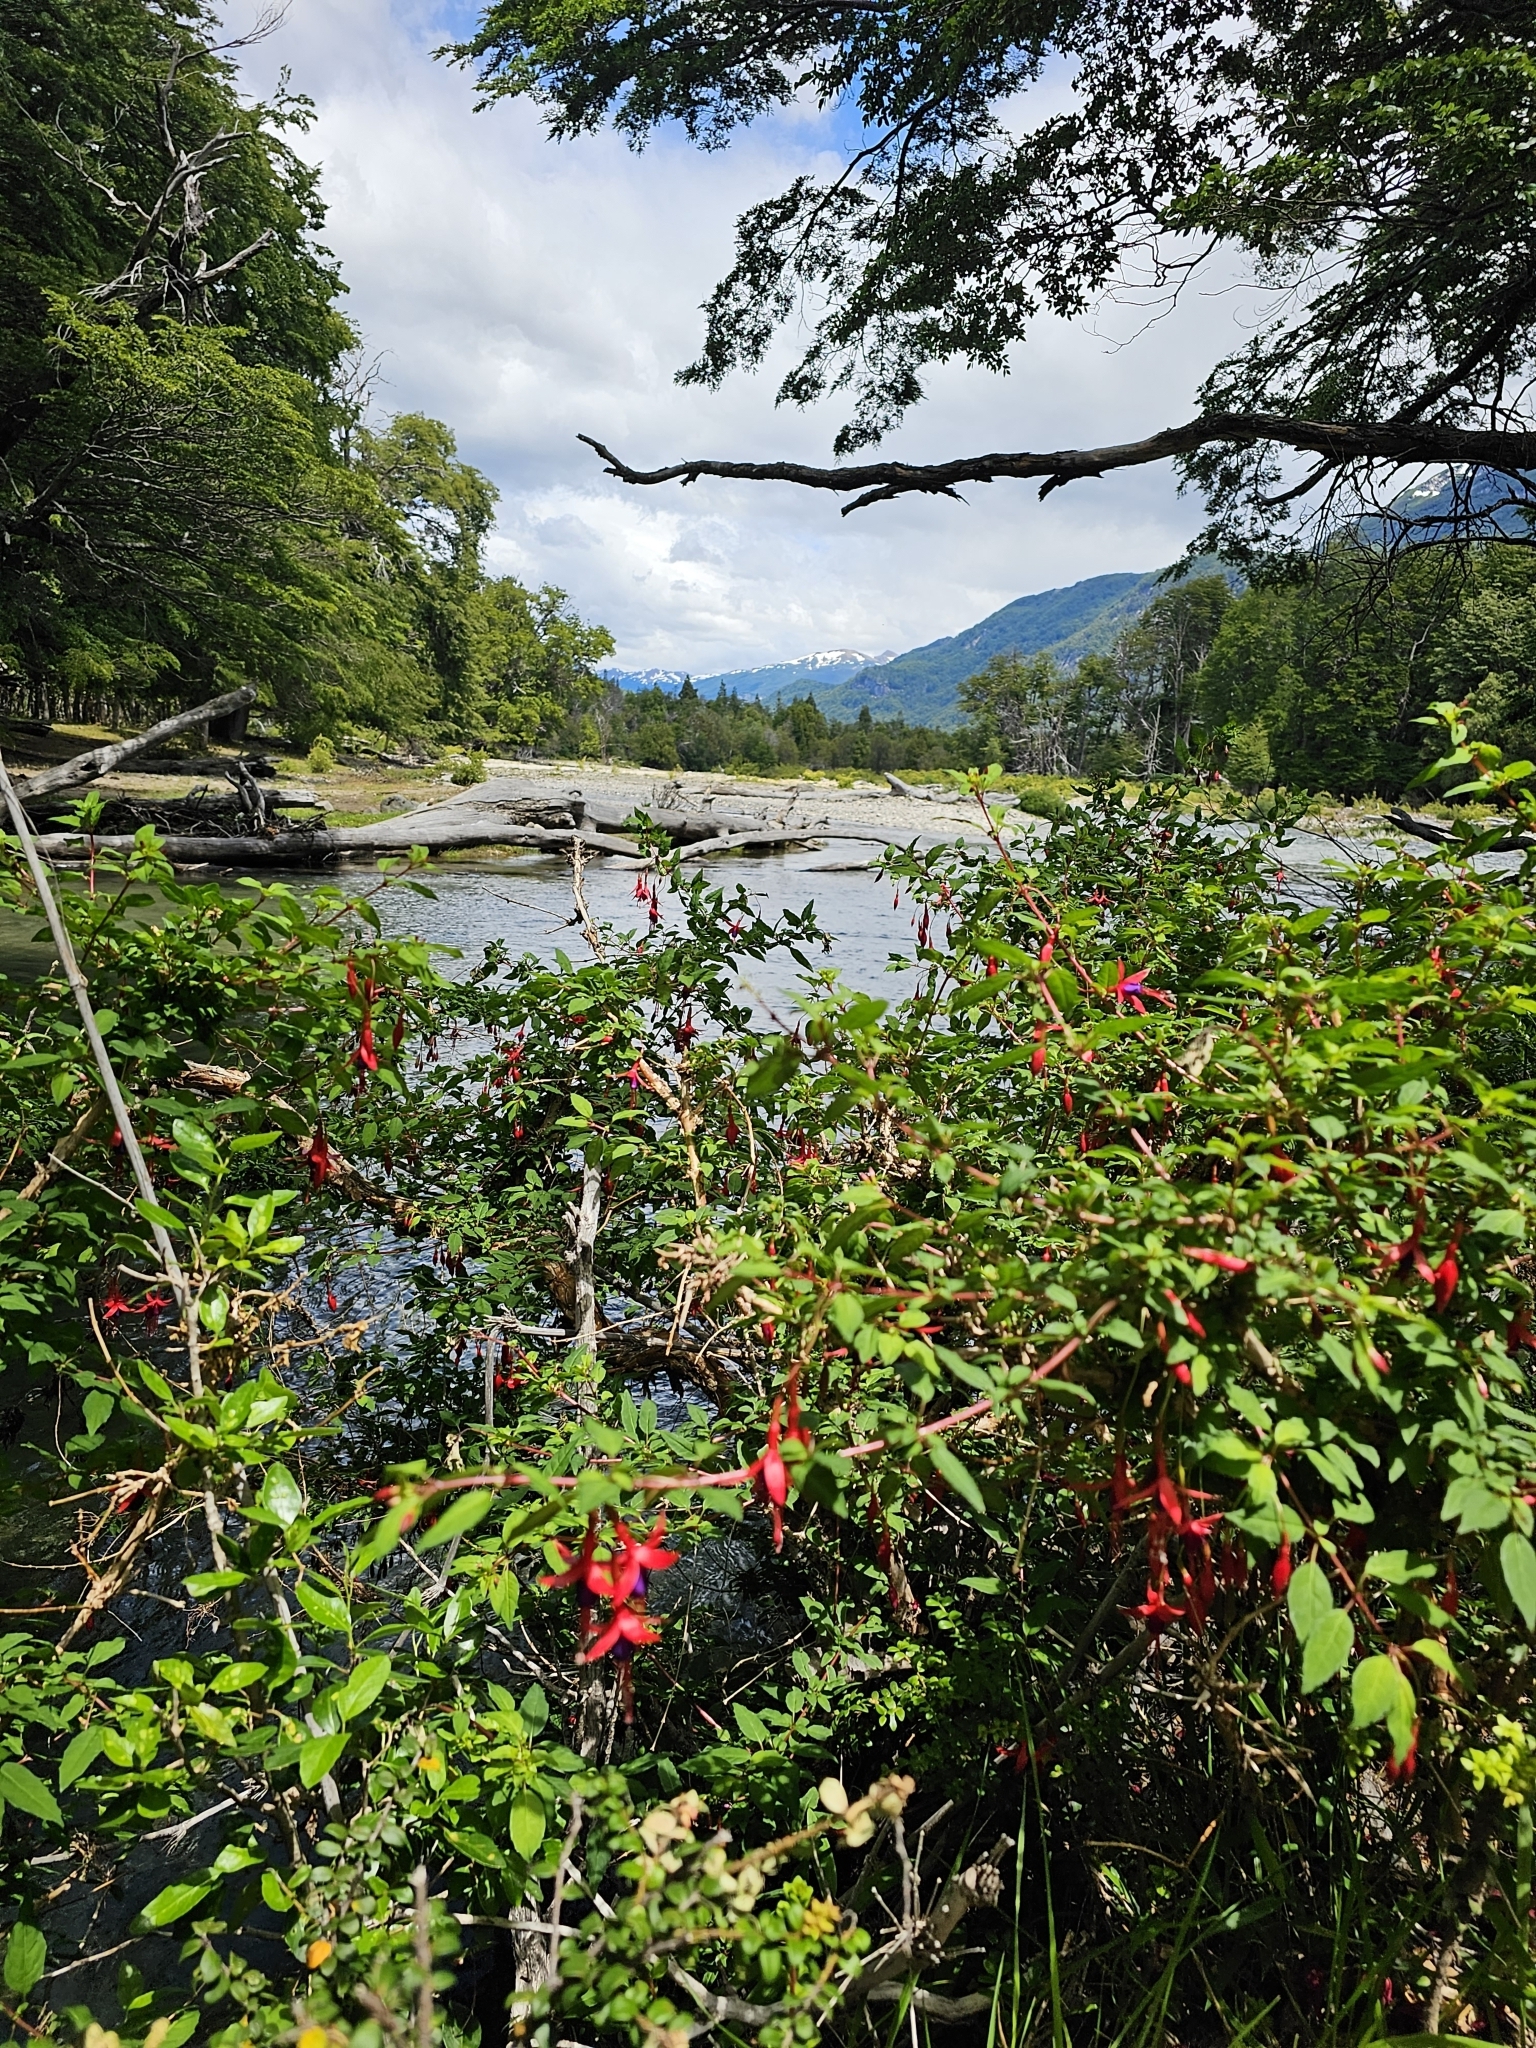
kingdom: Plantae
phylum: Tracheophyta
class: Magnoliopsida
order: Myrtales
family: Onagraceae
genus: Fuchsia
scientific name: Fuchsia magellanica
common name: Hardy fuchsia
